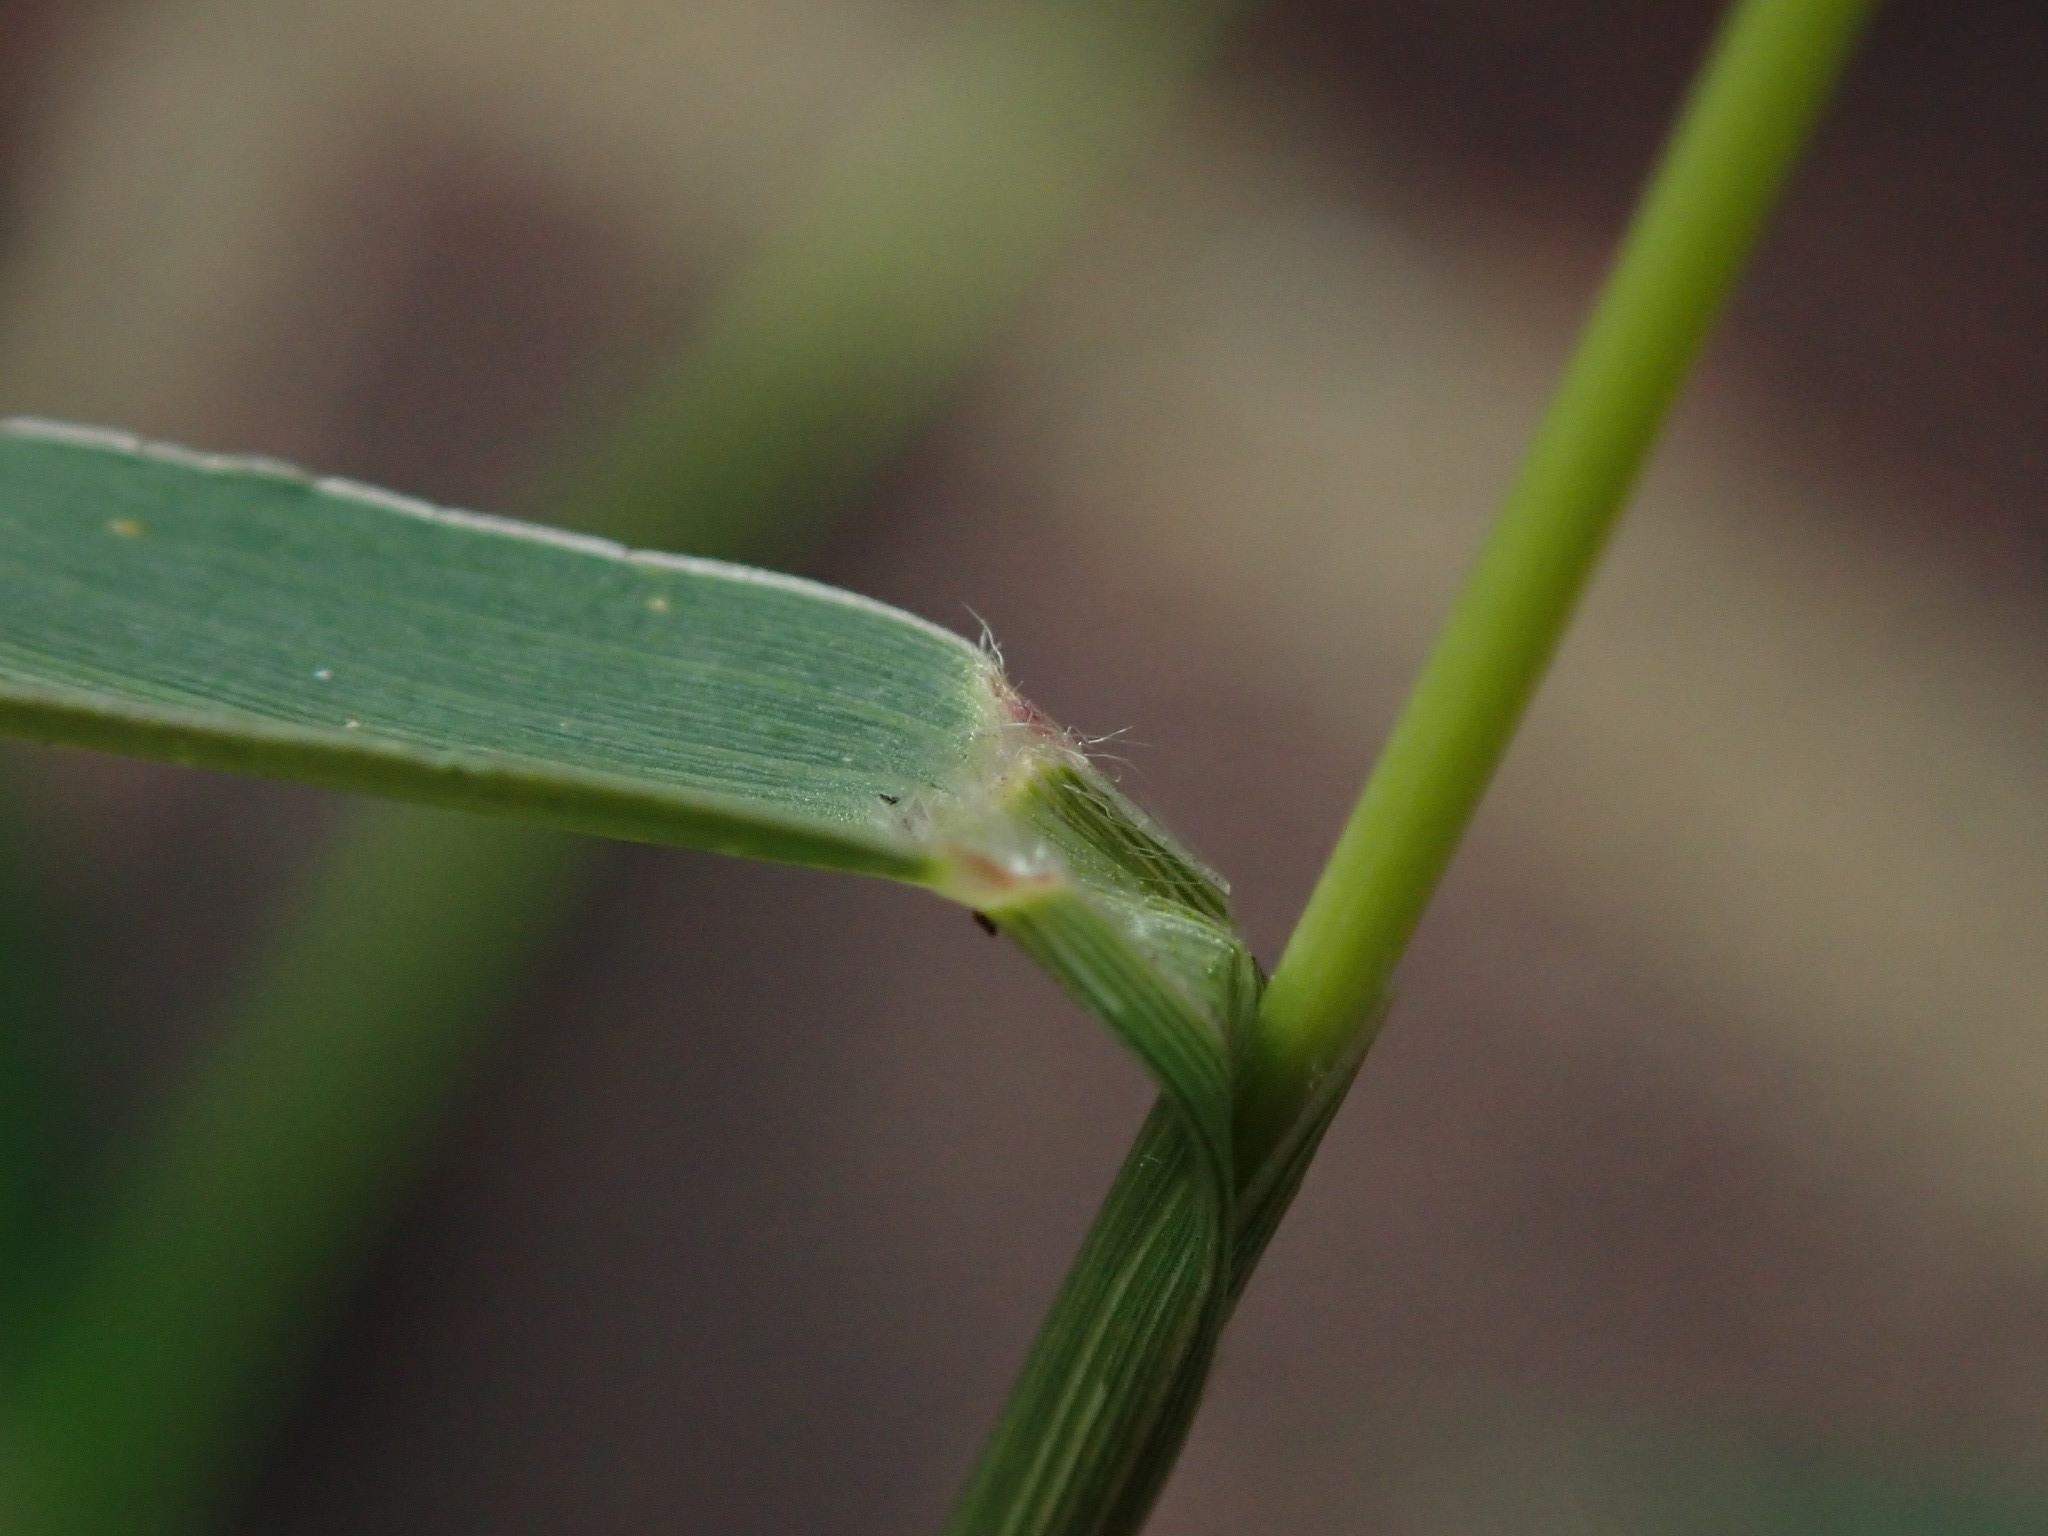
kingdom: Plantae
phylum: Tracheophyta
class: Liliopsida
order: Poales
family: Poaceae
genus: Setaria
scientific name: Setaria viridis
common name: Green bristlegrass
